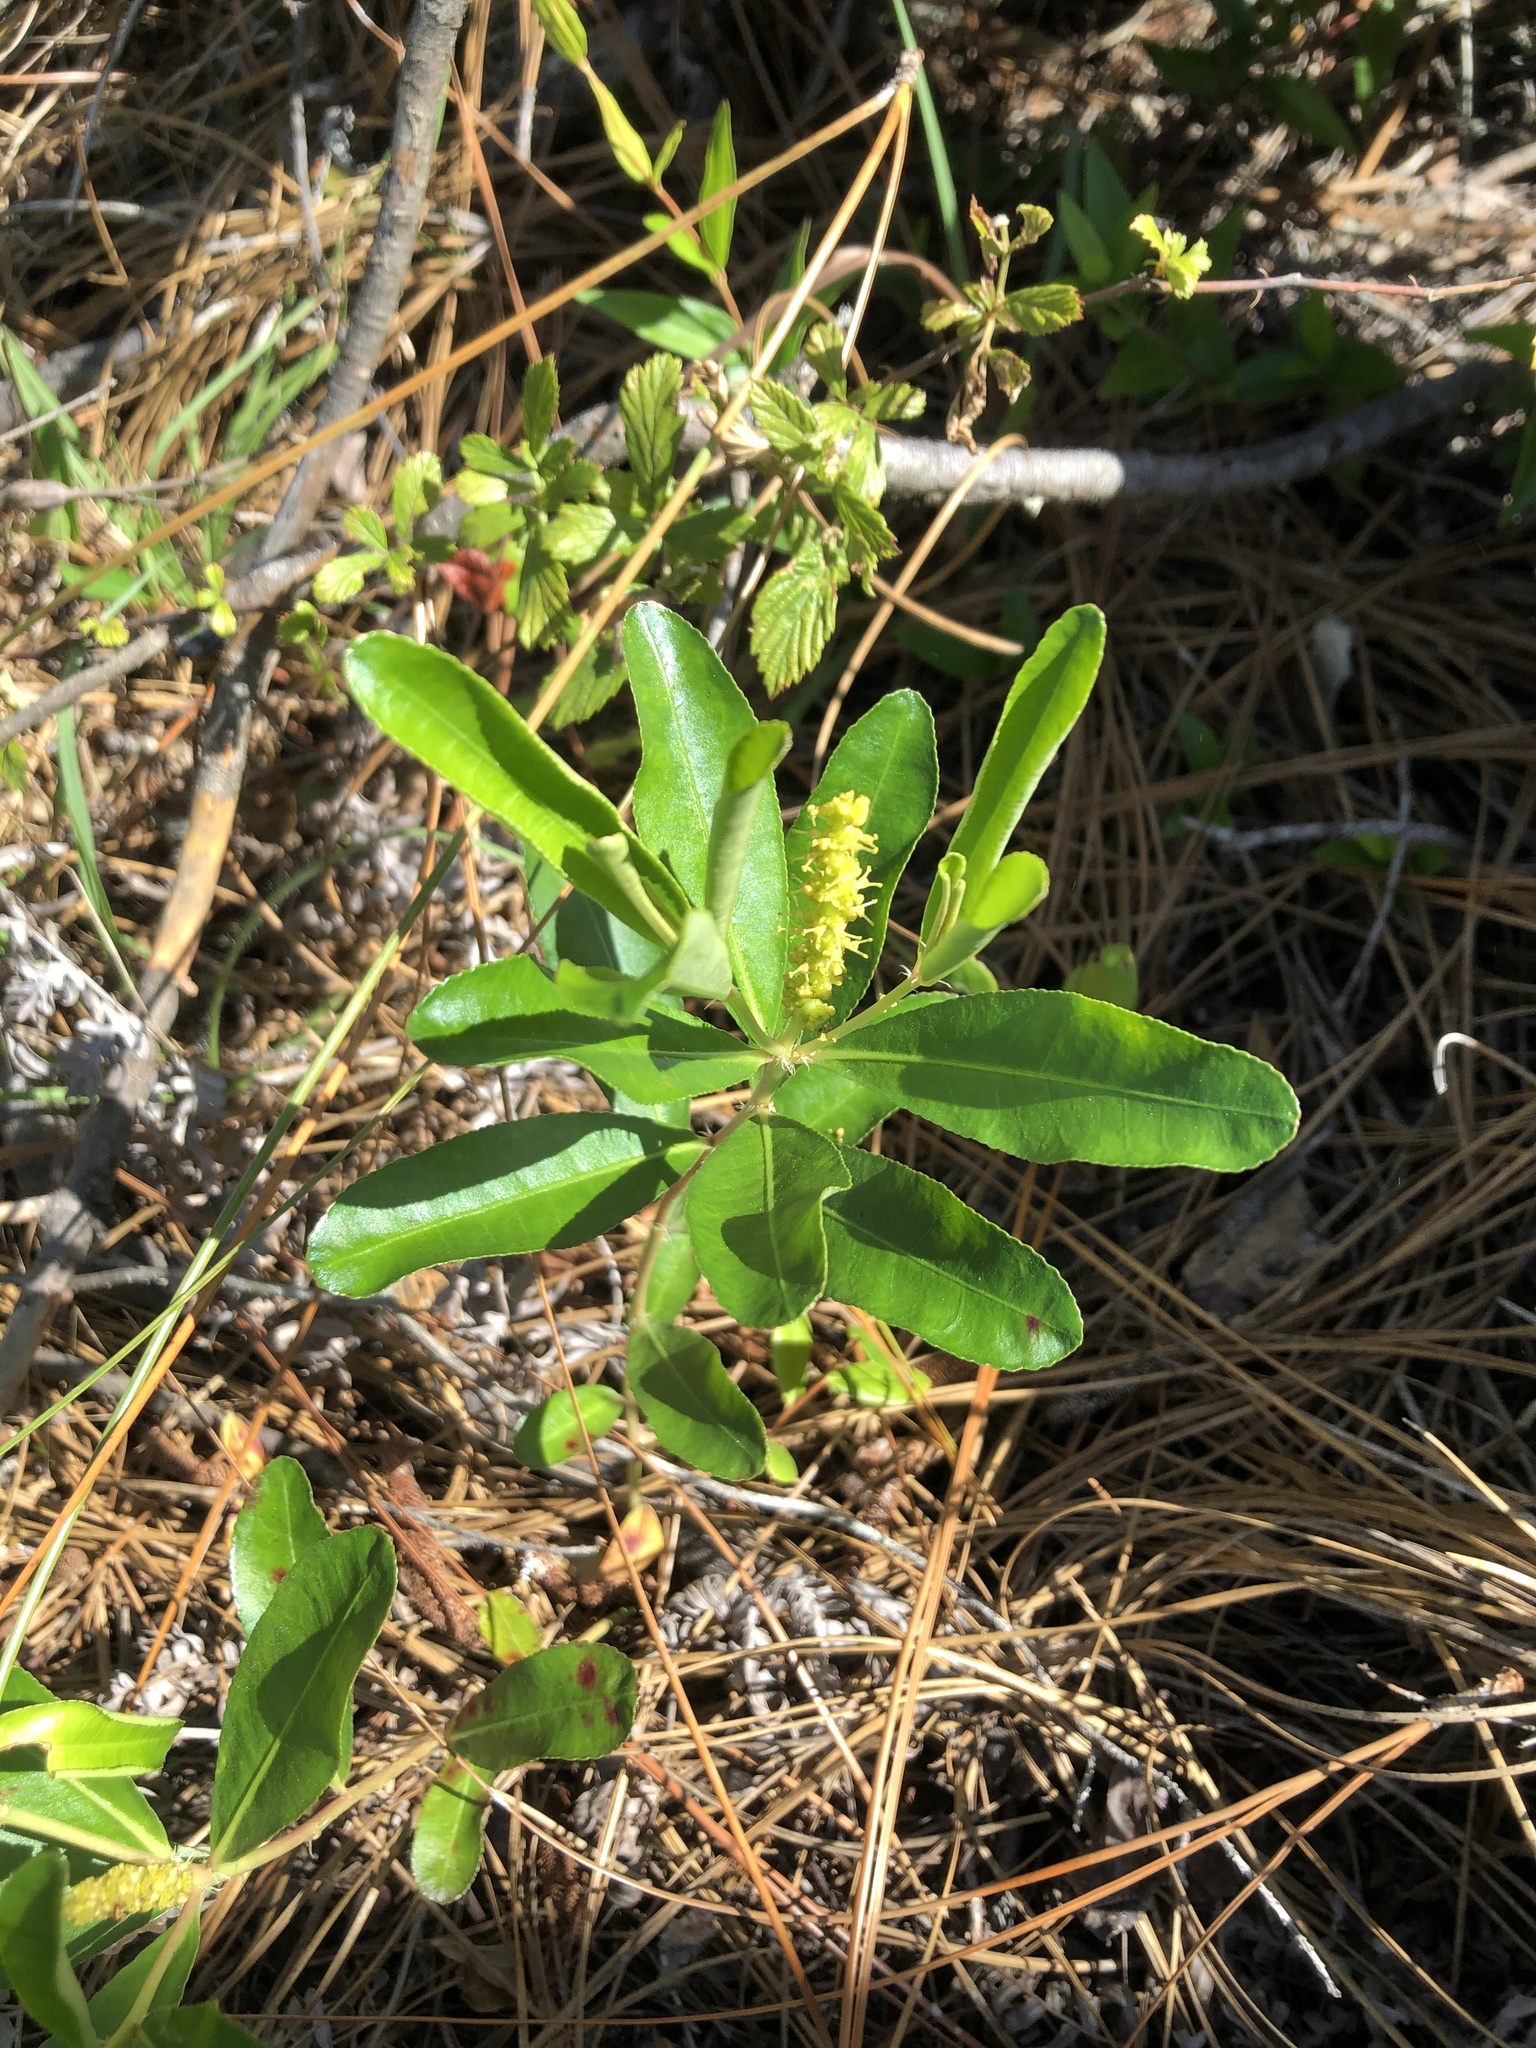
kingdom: Plantae
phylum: Tracheophyta
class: Magnoliopsida
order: Malpighiales
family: Euphorbiaceae
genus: Stillingia
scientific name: Stillingia sylvatica
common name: Queen's-delight
